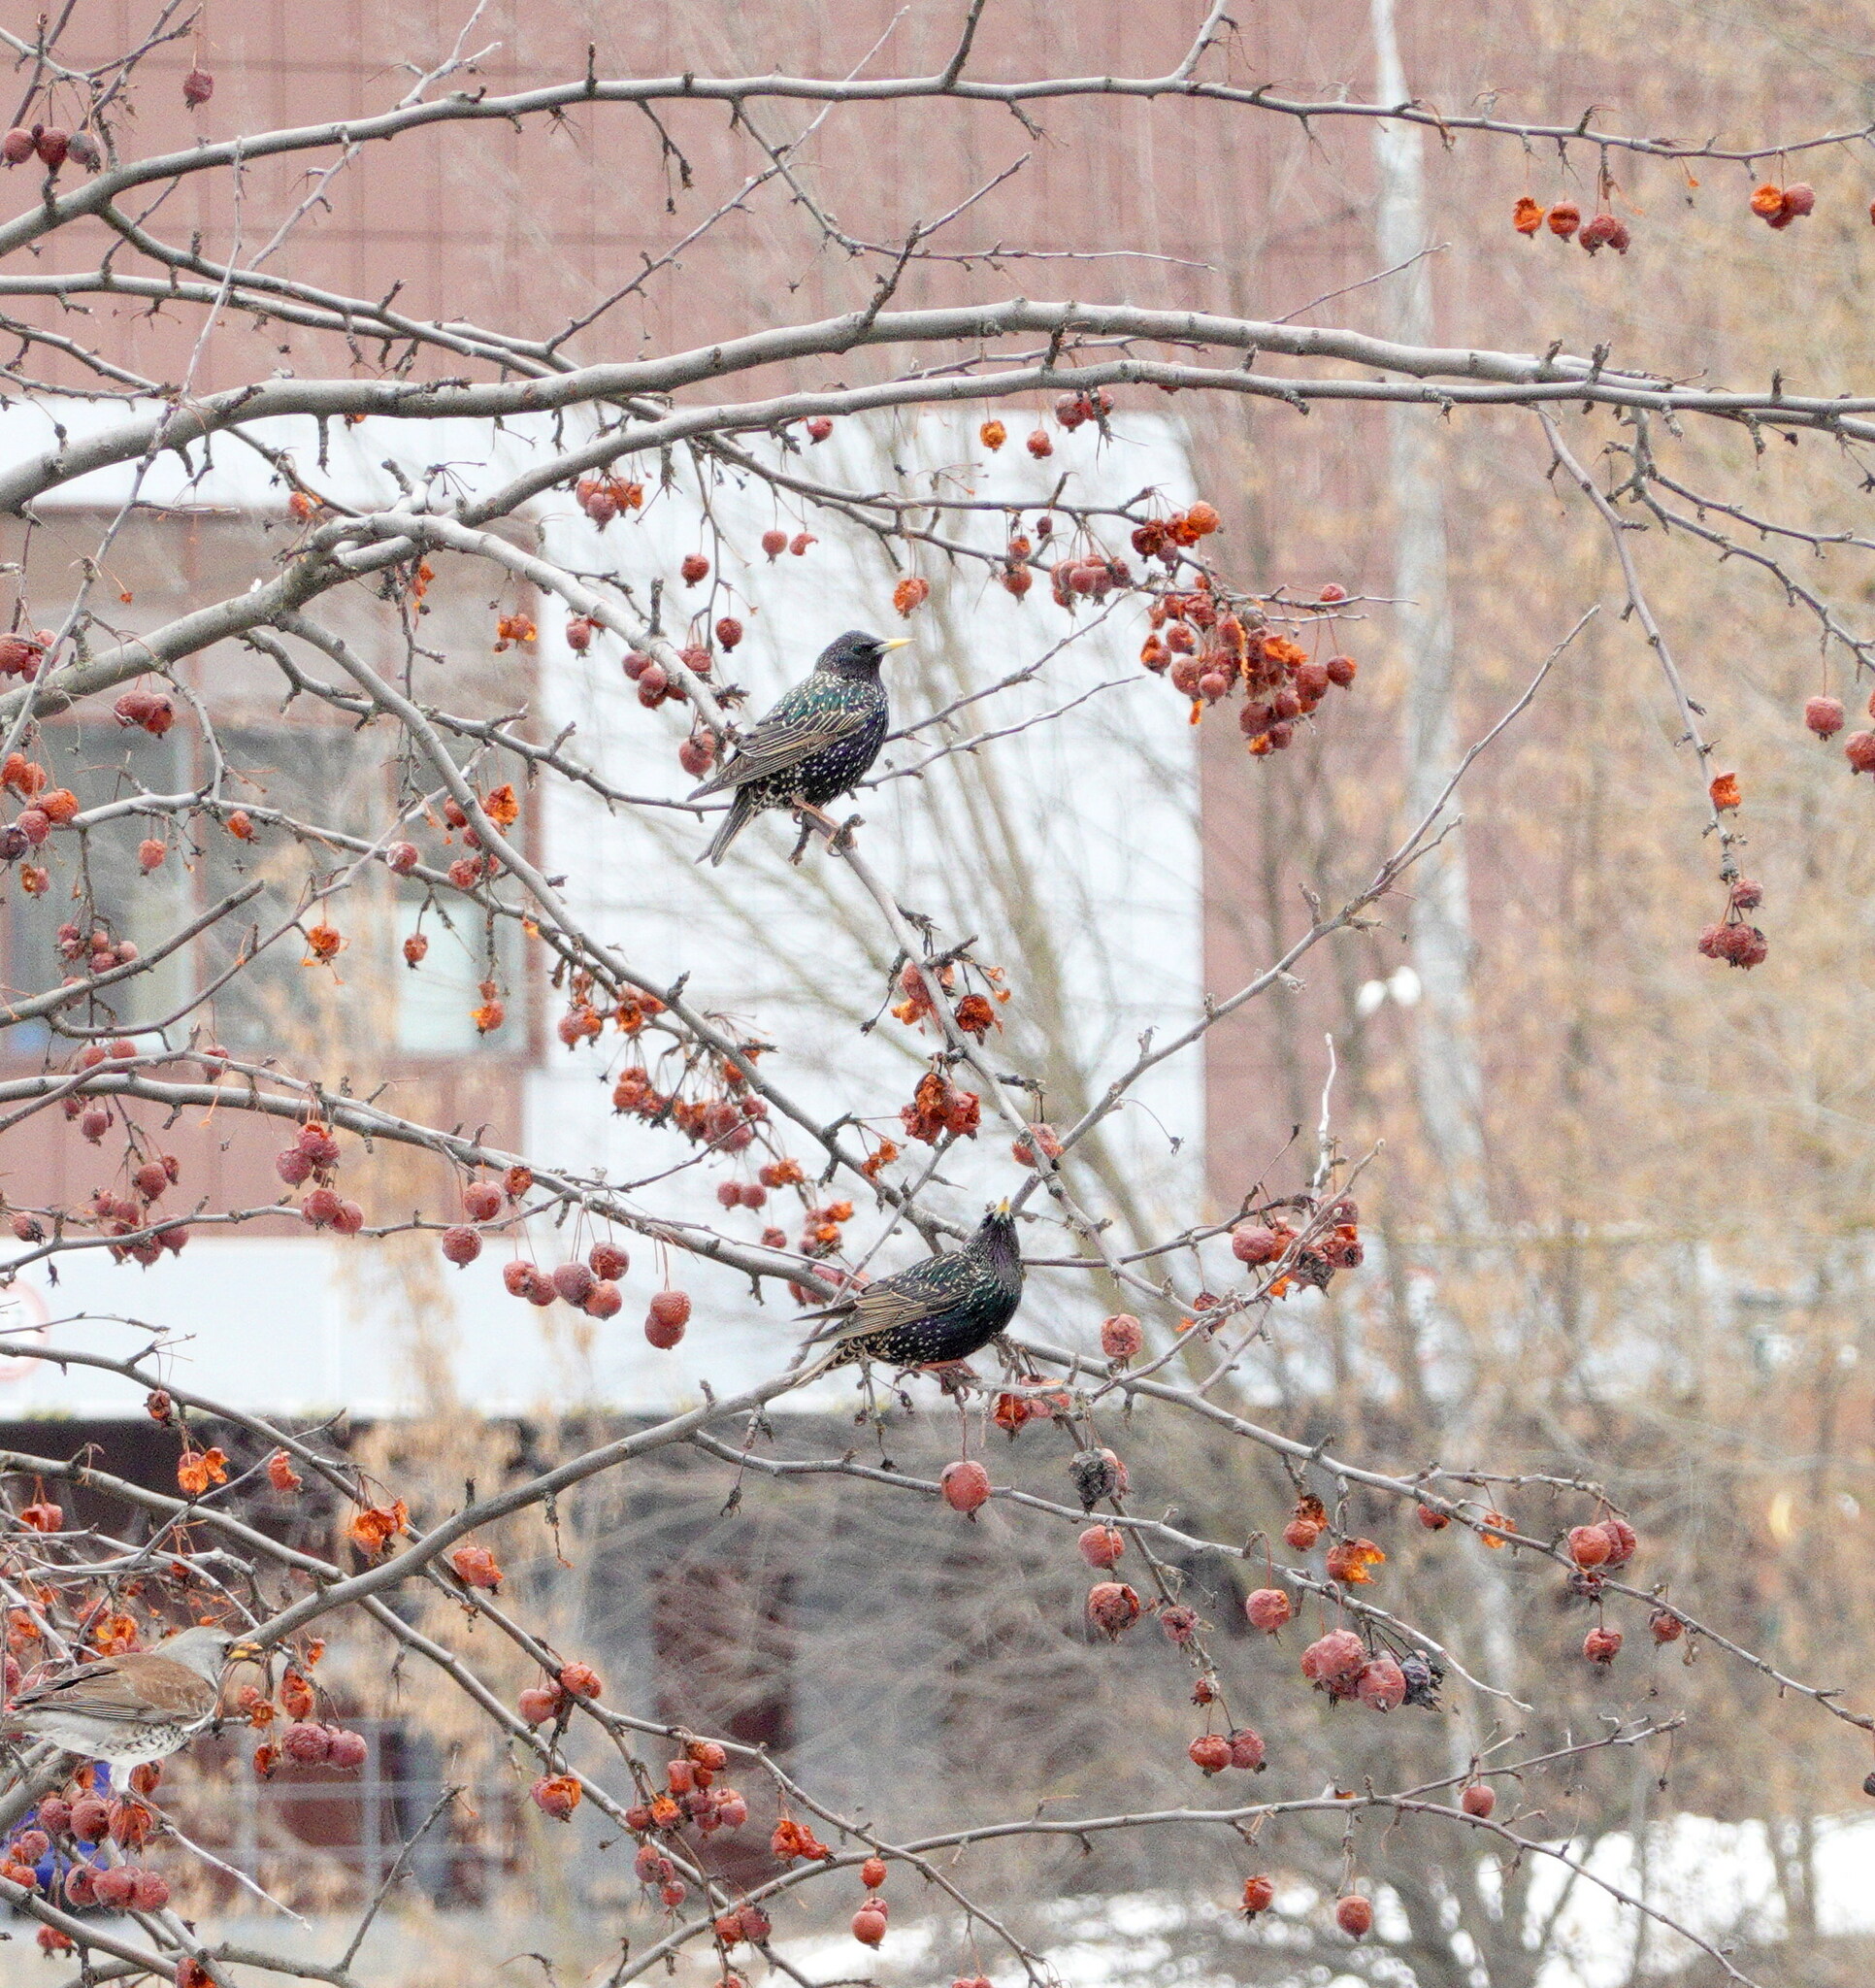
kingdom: Animalia
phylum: Chordata
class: Aves
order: Passeriformes
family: Sturnidae
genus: Sturnus
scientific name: Sturnus vulgaris
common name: Common starling
